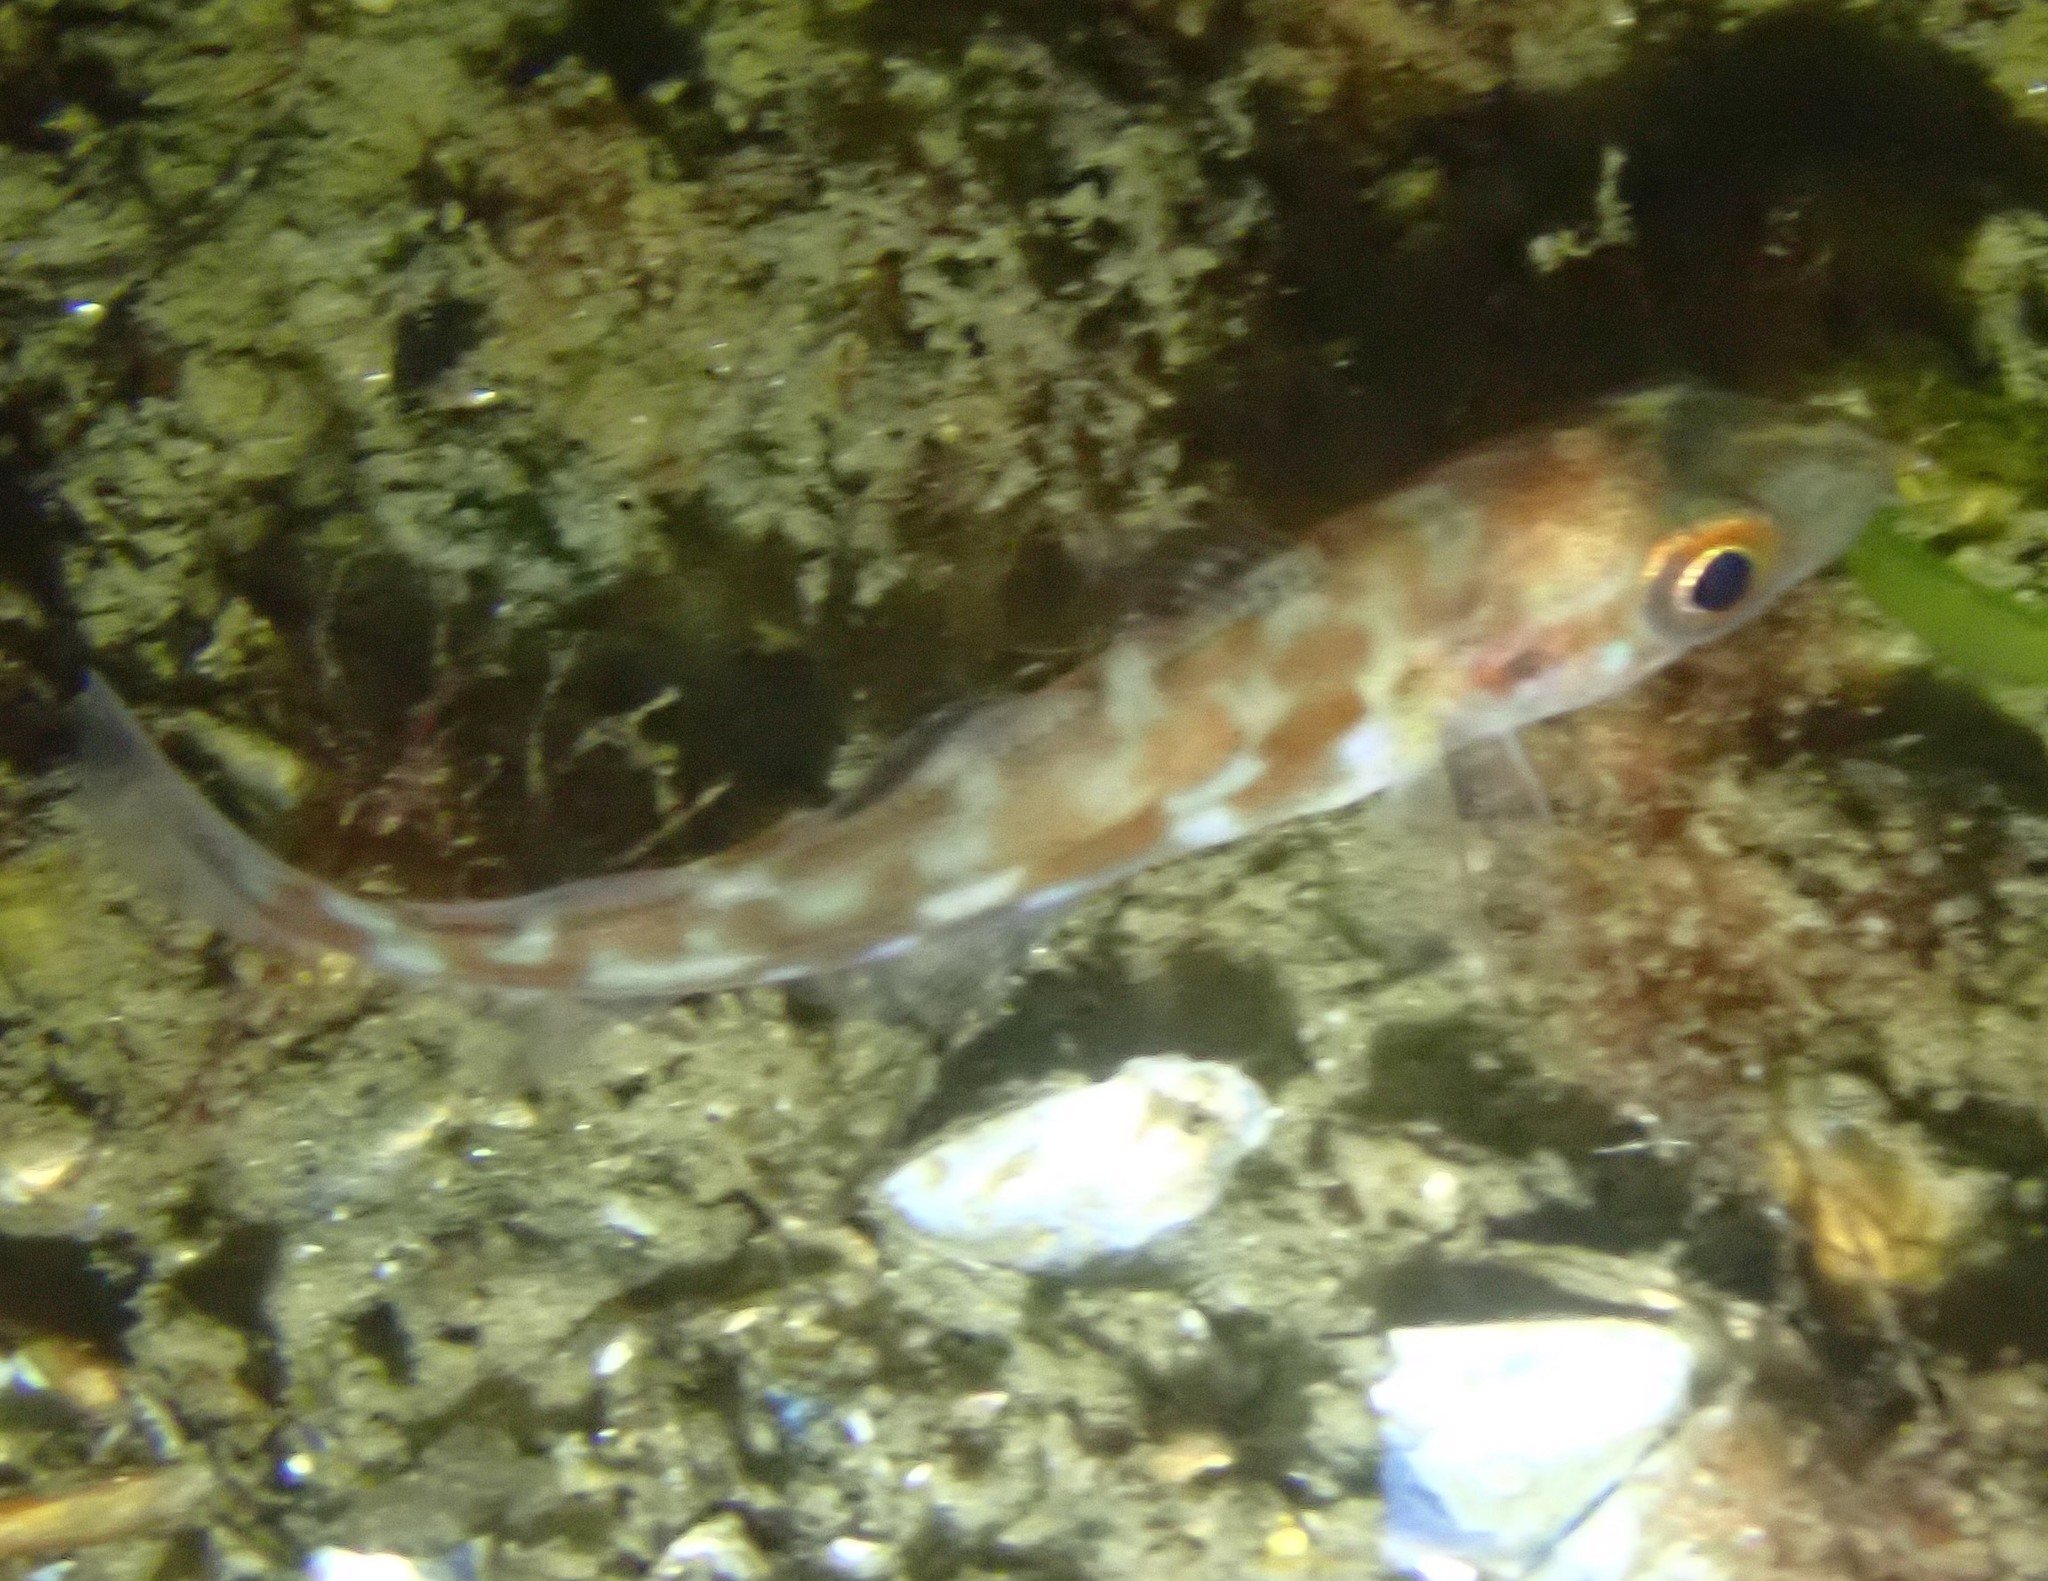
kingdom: Animalia
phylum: Chordata
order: Gadiformes
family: Gadidae
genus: Gadus
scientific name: Gadus morhua
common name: Atlantic cod
